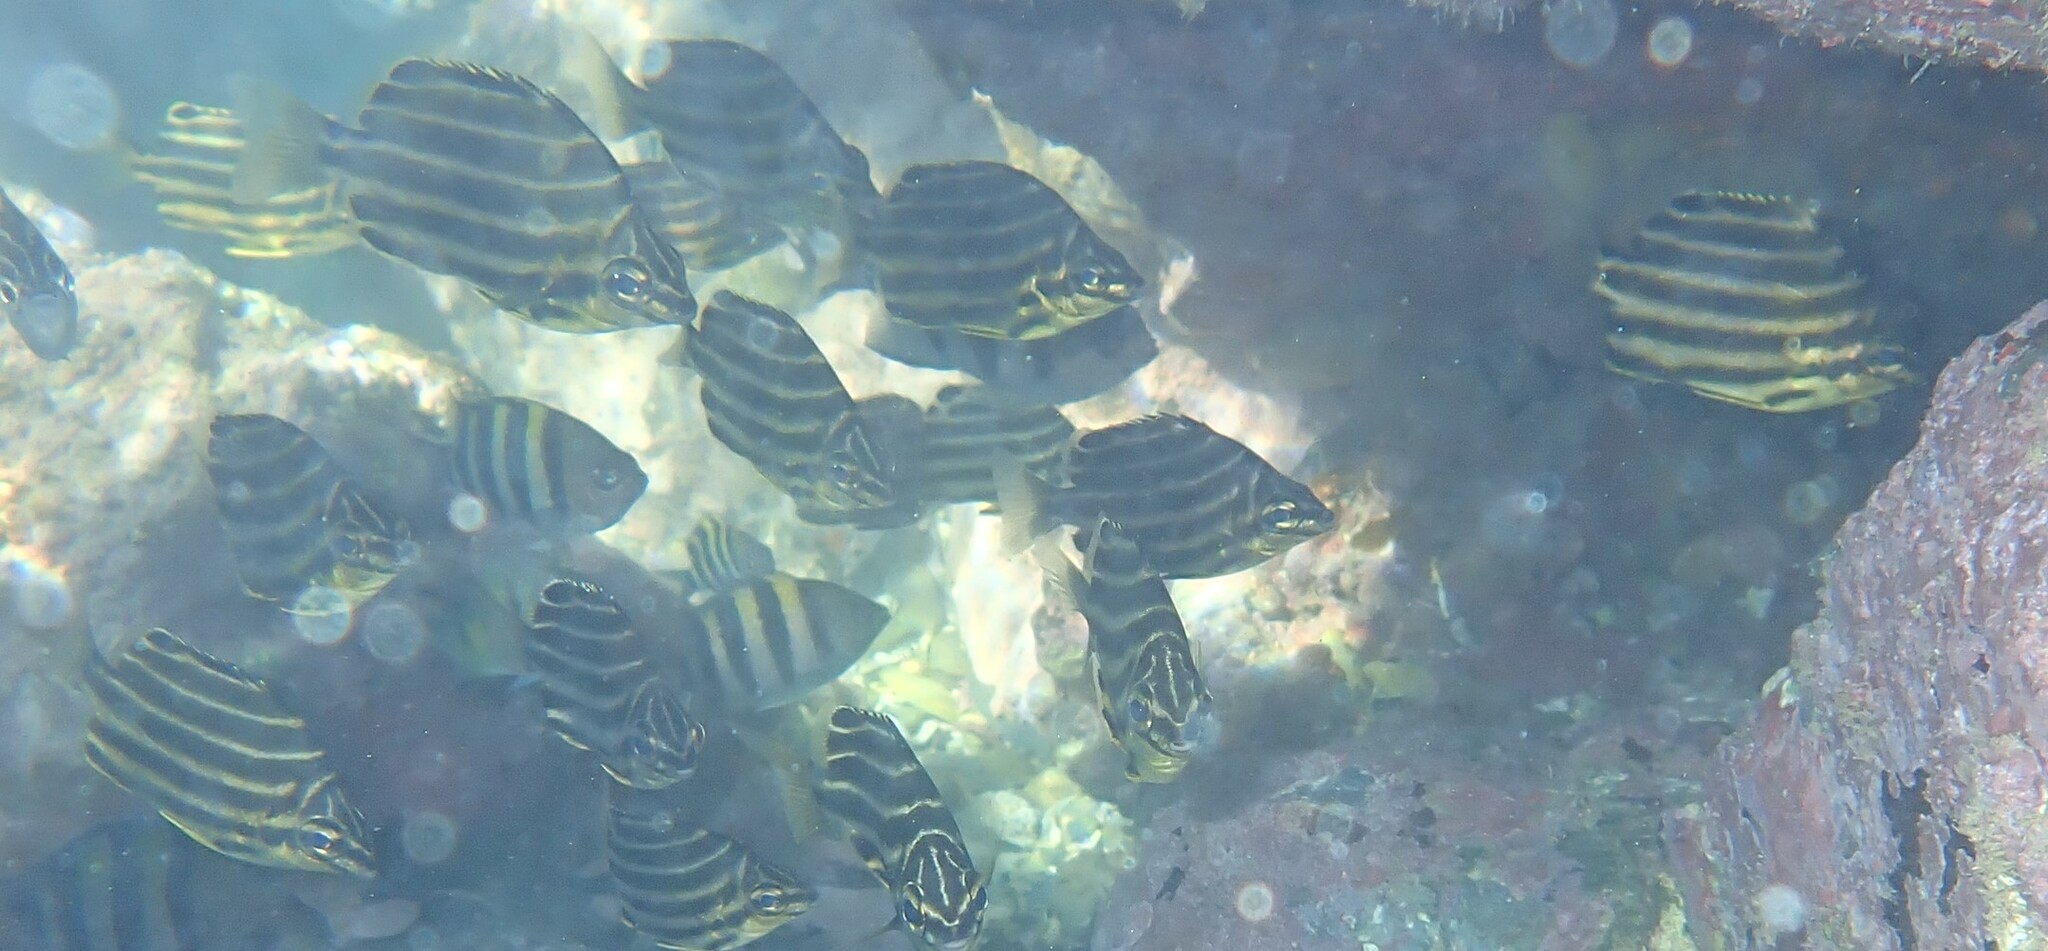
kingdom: Animalia
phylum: Chordata
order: Perciformes
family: Kyphosidae
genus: Microcanthus
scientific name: Microcanthus joyceae
